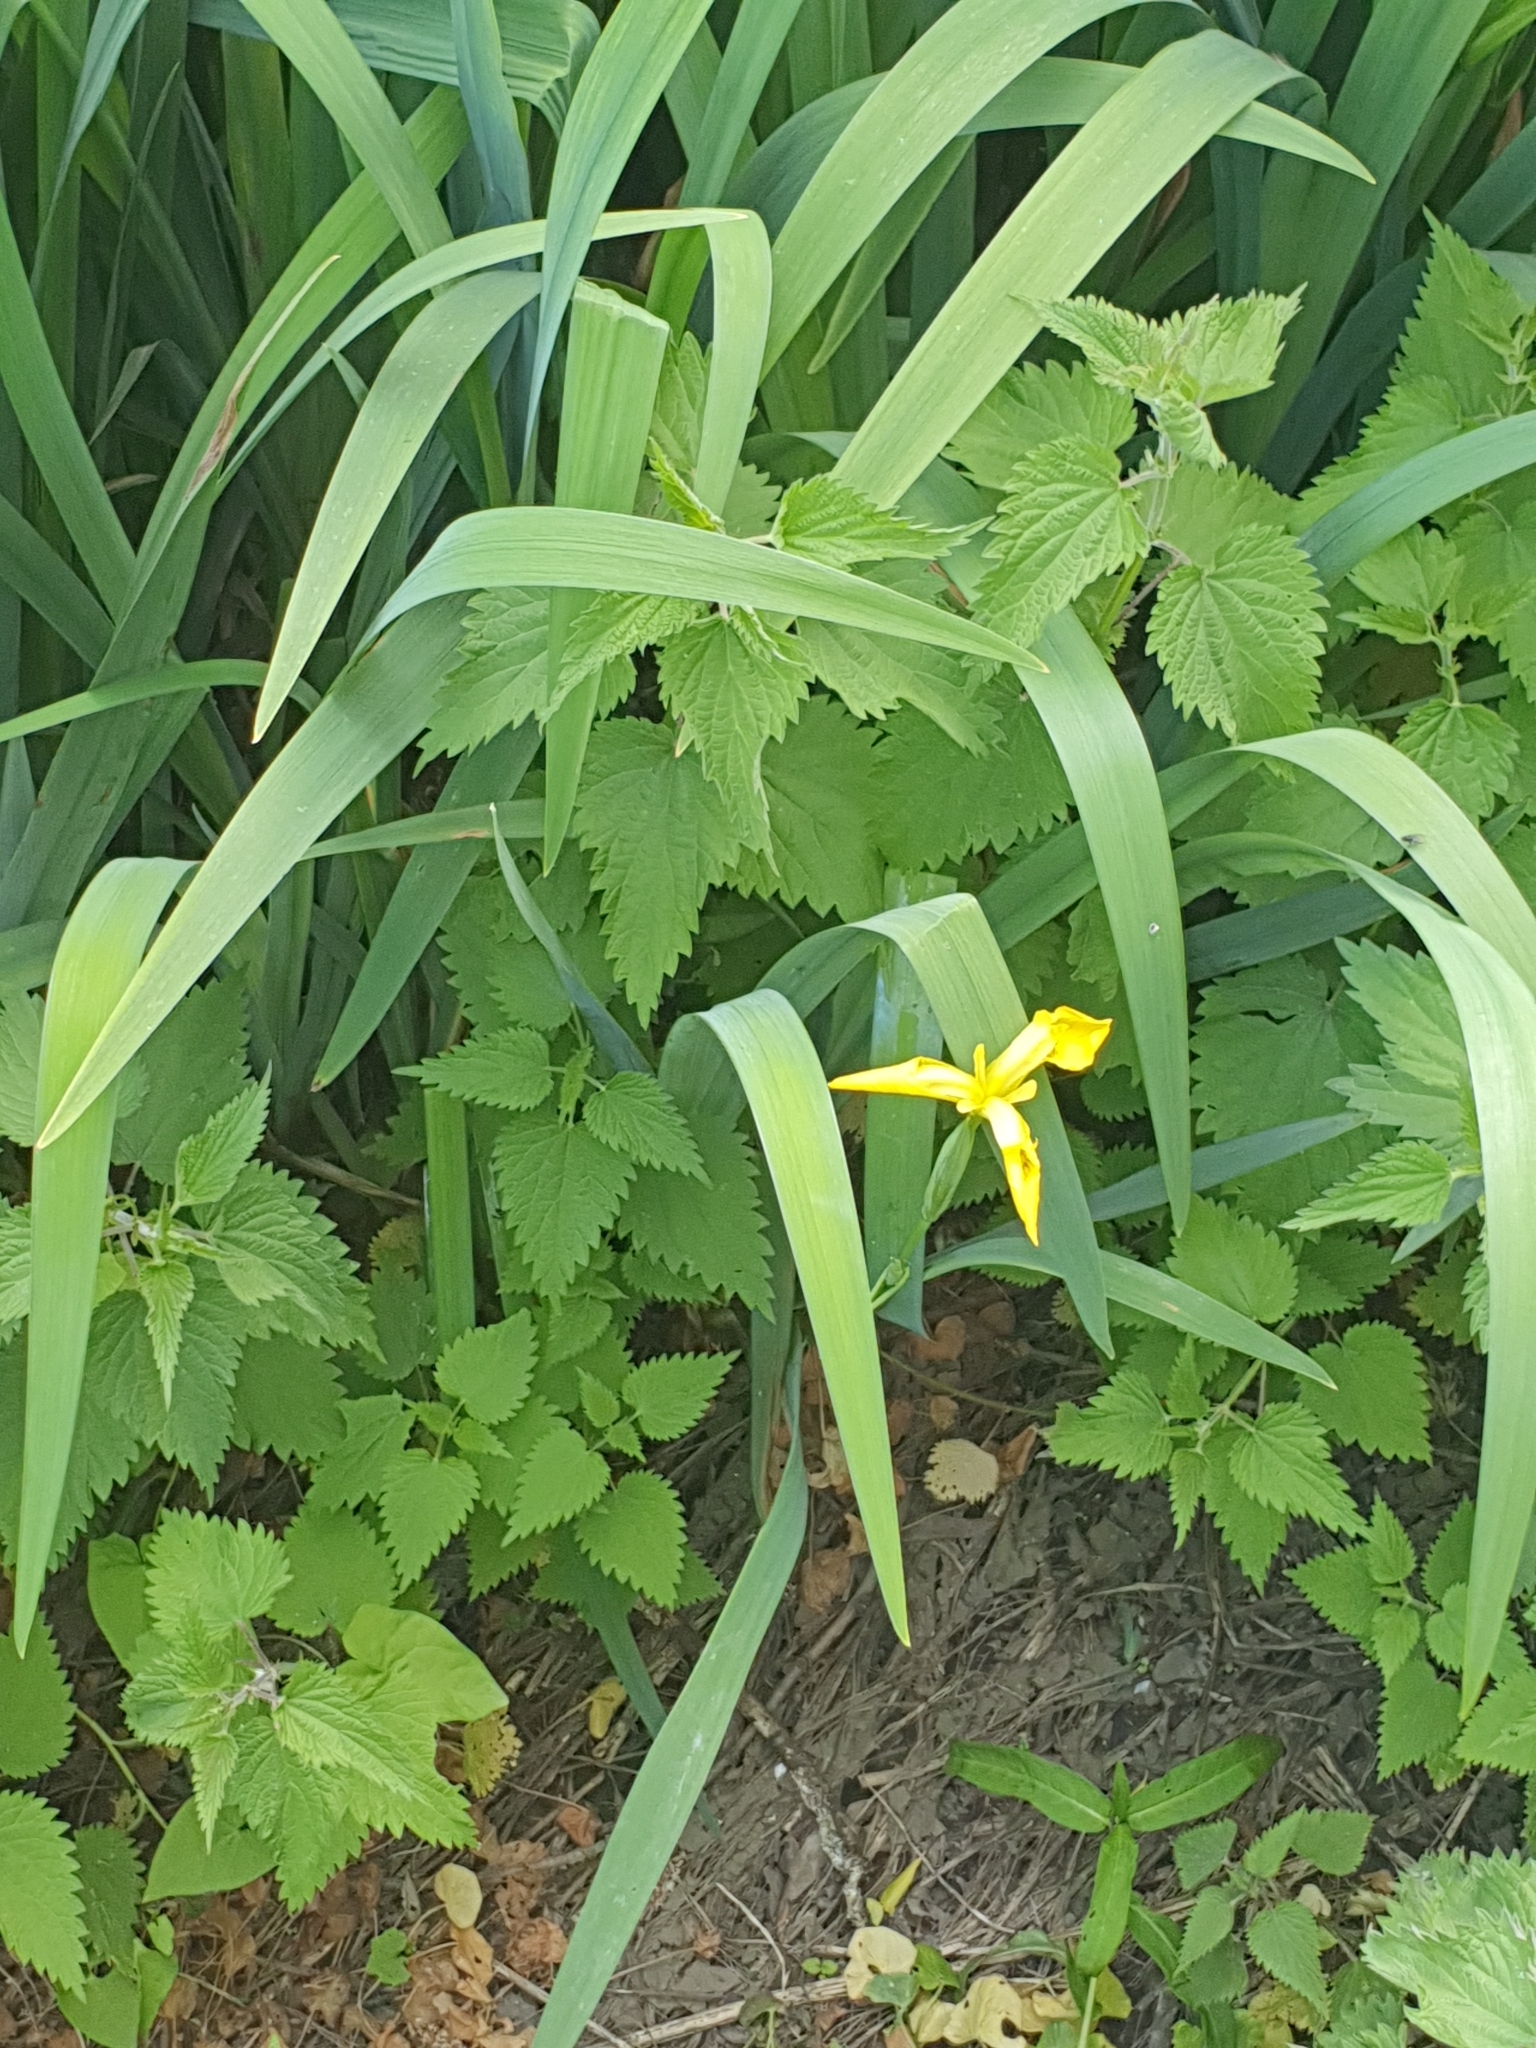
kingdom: Plantae
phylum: Tracheophyta
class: Liliopsida
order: Asparagales
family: Iridaceae
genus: Iris
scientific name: Iris pseudacorus
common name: Yellow flag
